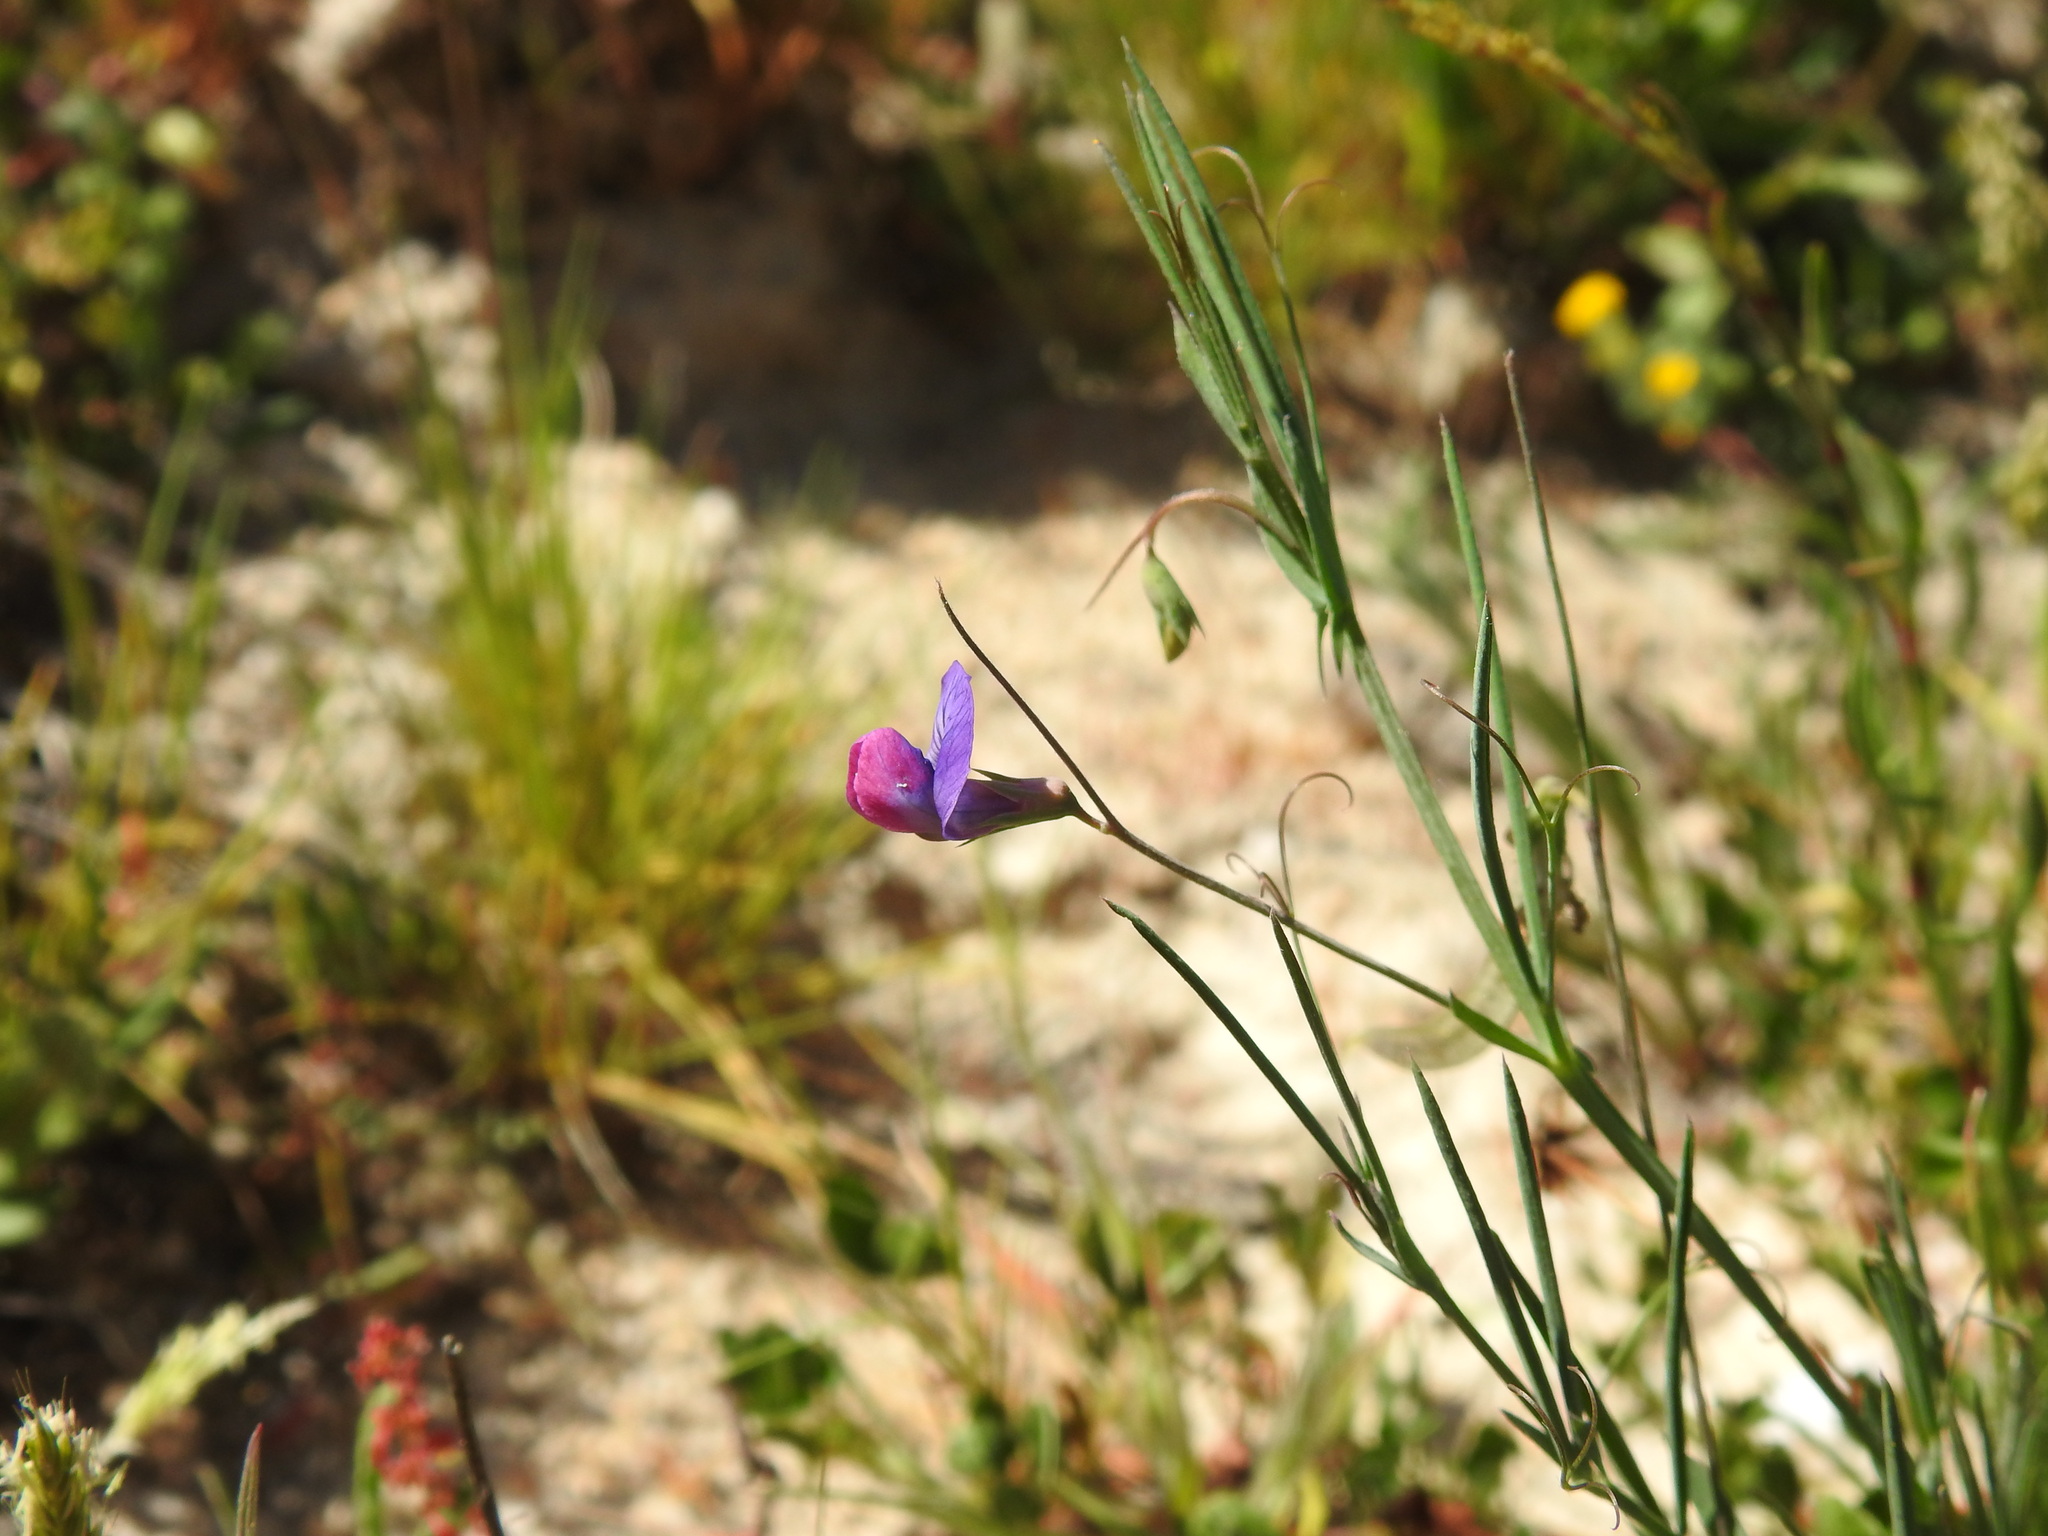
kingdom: Plantae
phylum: Tracheophyta
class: Magnoliopsida
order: Fabales
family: Fabaceae
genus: Lathyrus
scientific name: Lathyrus angulatus
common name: Angular pea
